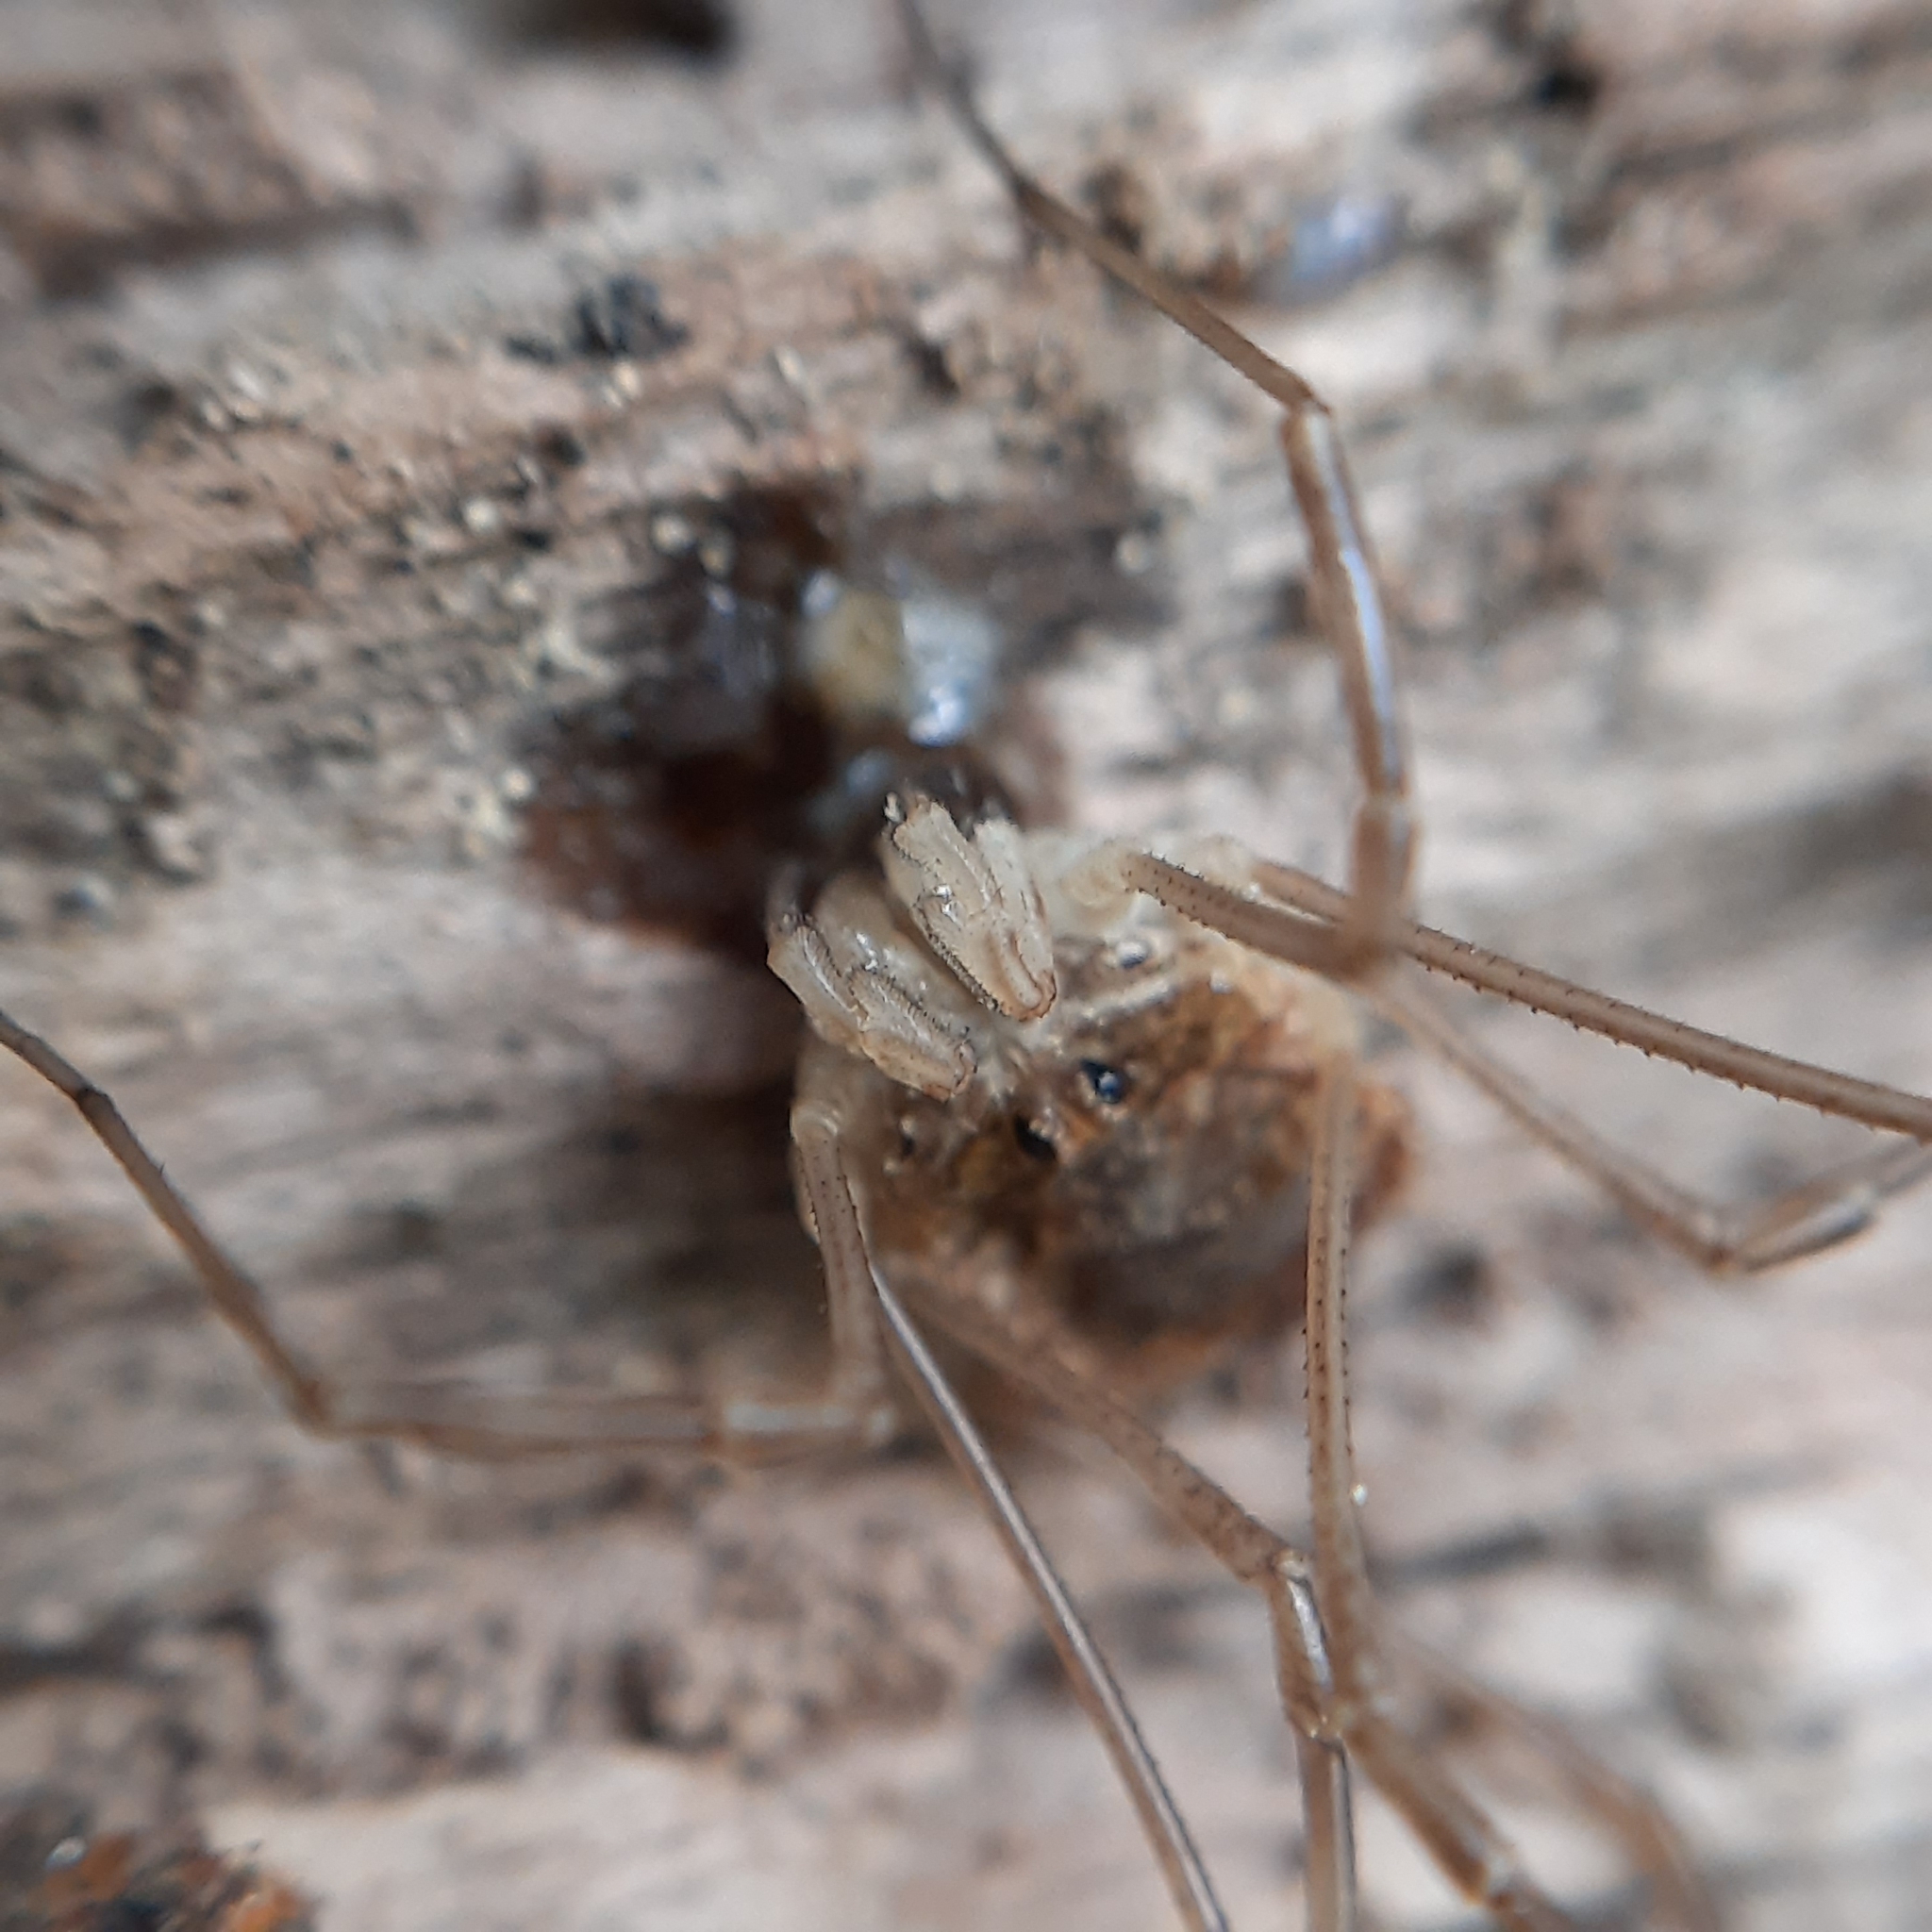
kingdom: Animalia
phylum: Arthropoda
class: Arachnida
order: Opiliones
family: Phalangiidae
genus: Rilaena
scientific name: Rilaena triangularis
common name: Spring harvestman
